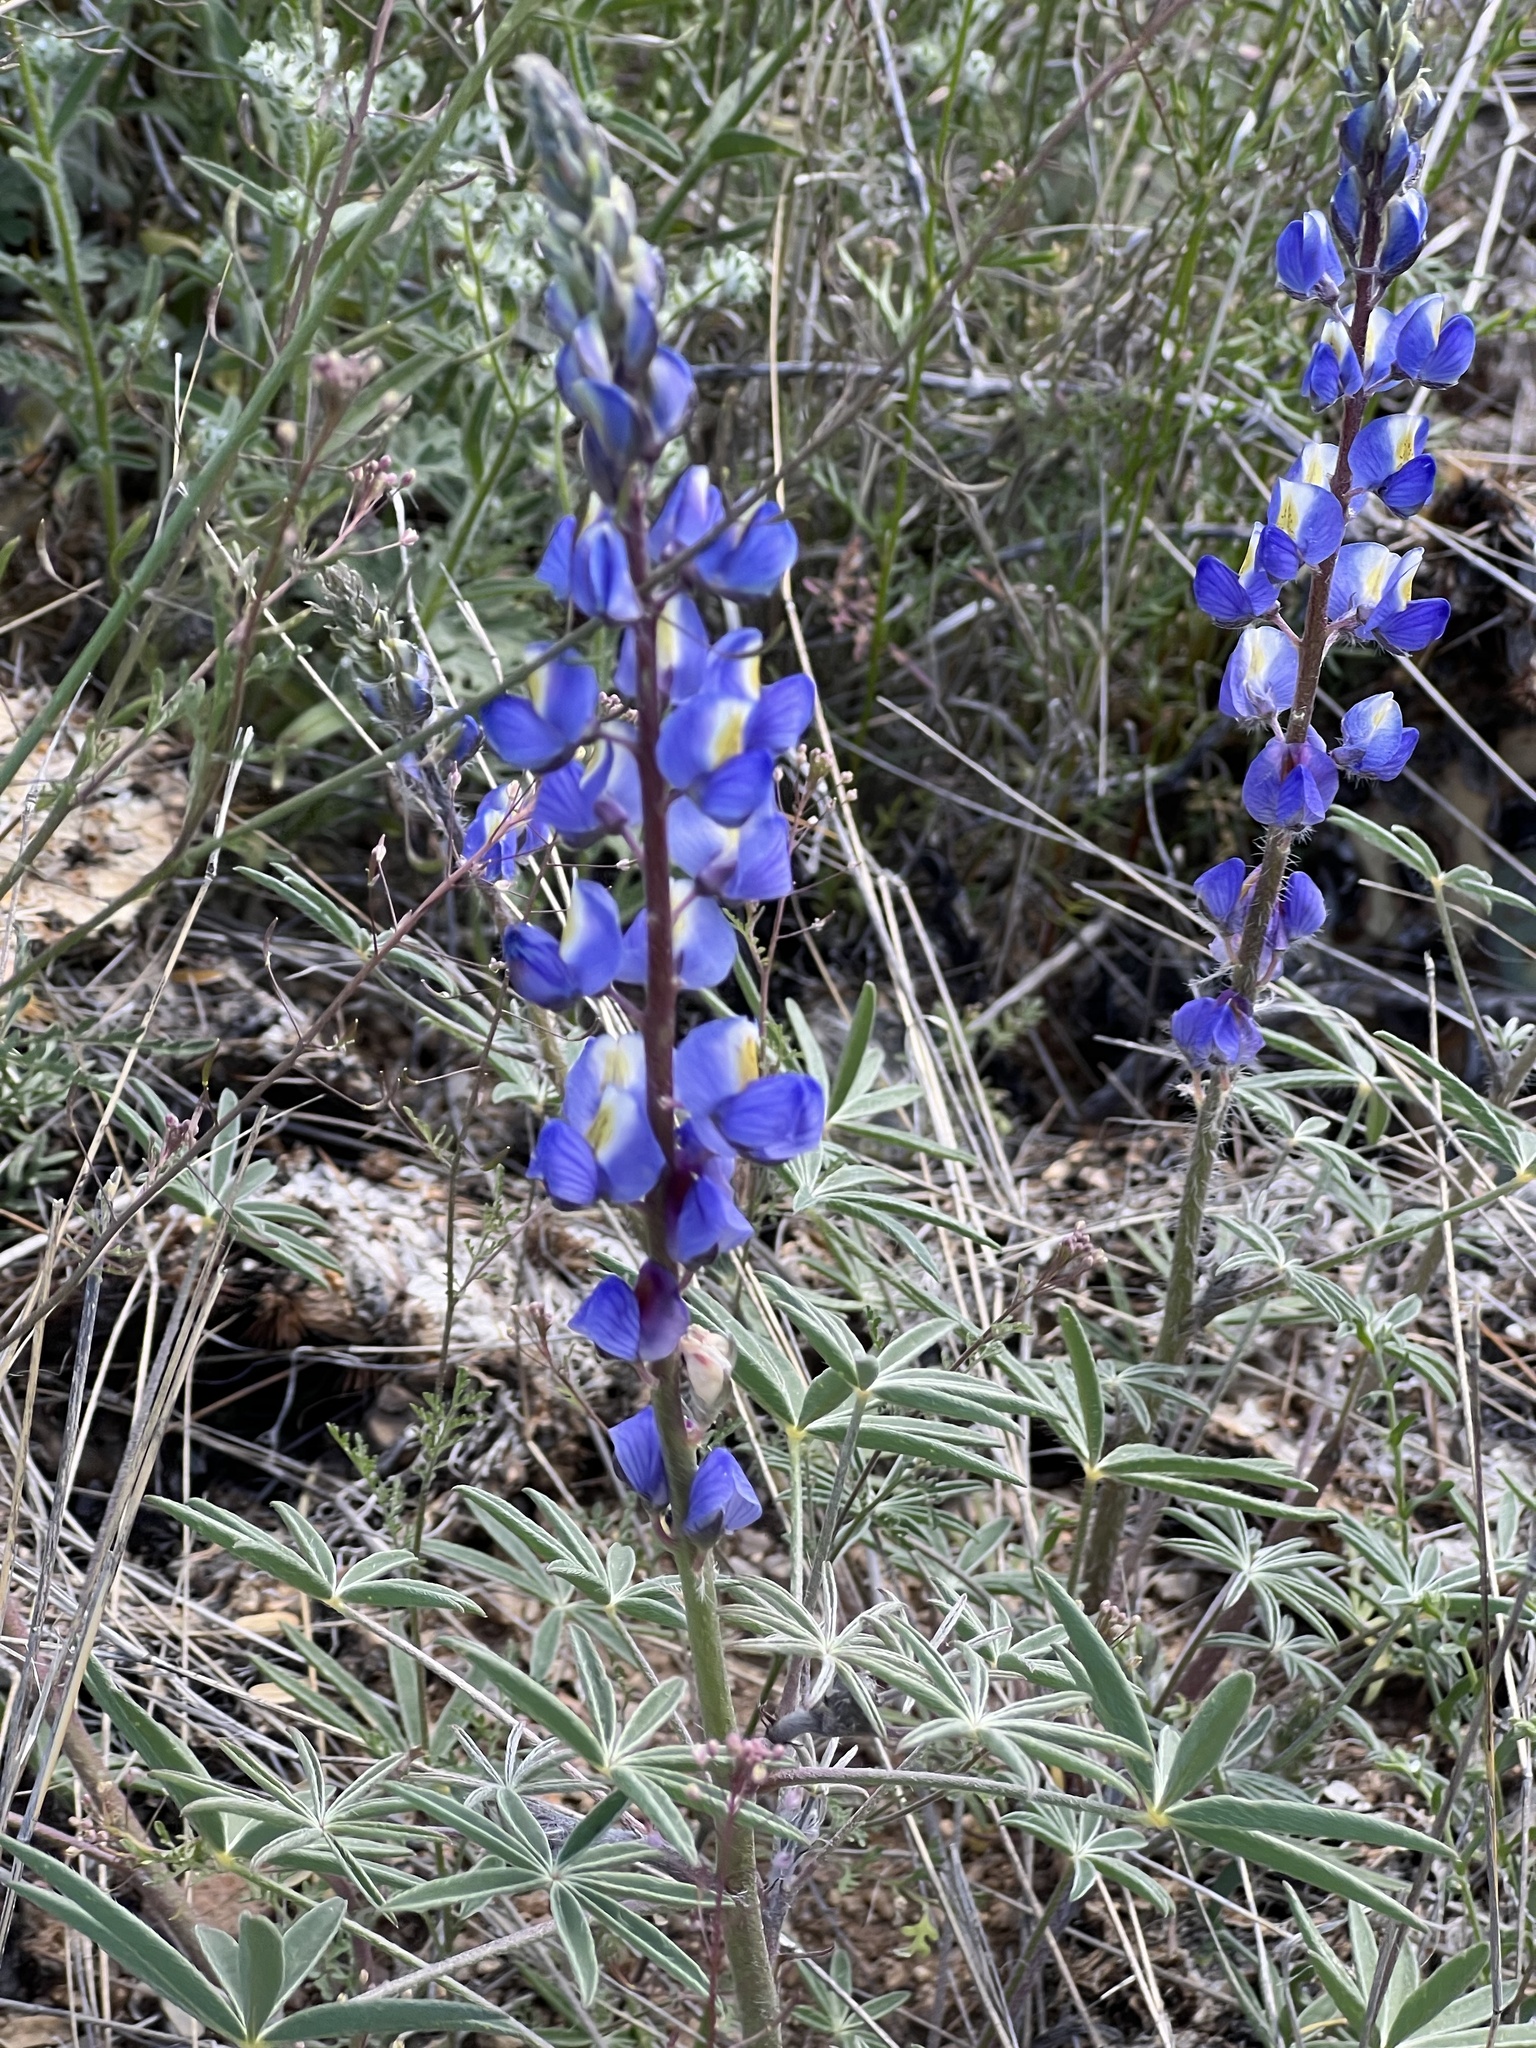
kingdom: Plantae
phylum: Tracheophyta
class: Magnoliopsida
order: Fabales
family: Fabaceae
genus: Lupinus
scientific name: Lupinus sparsiflorus
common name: Coulter's lupine
